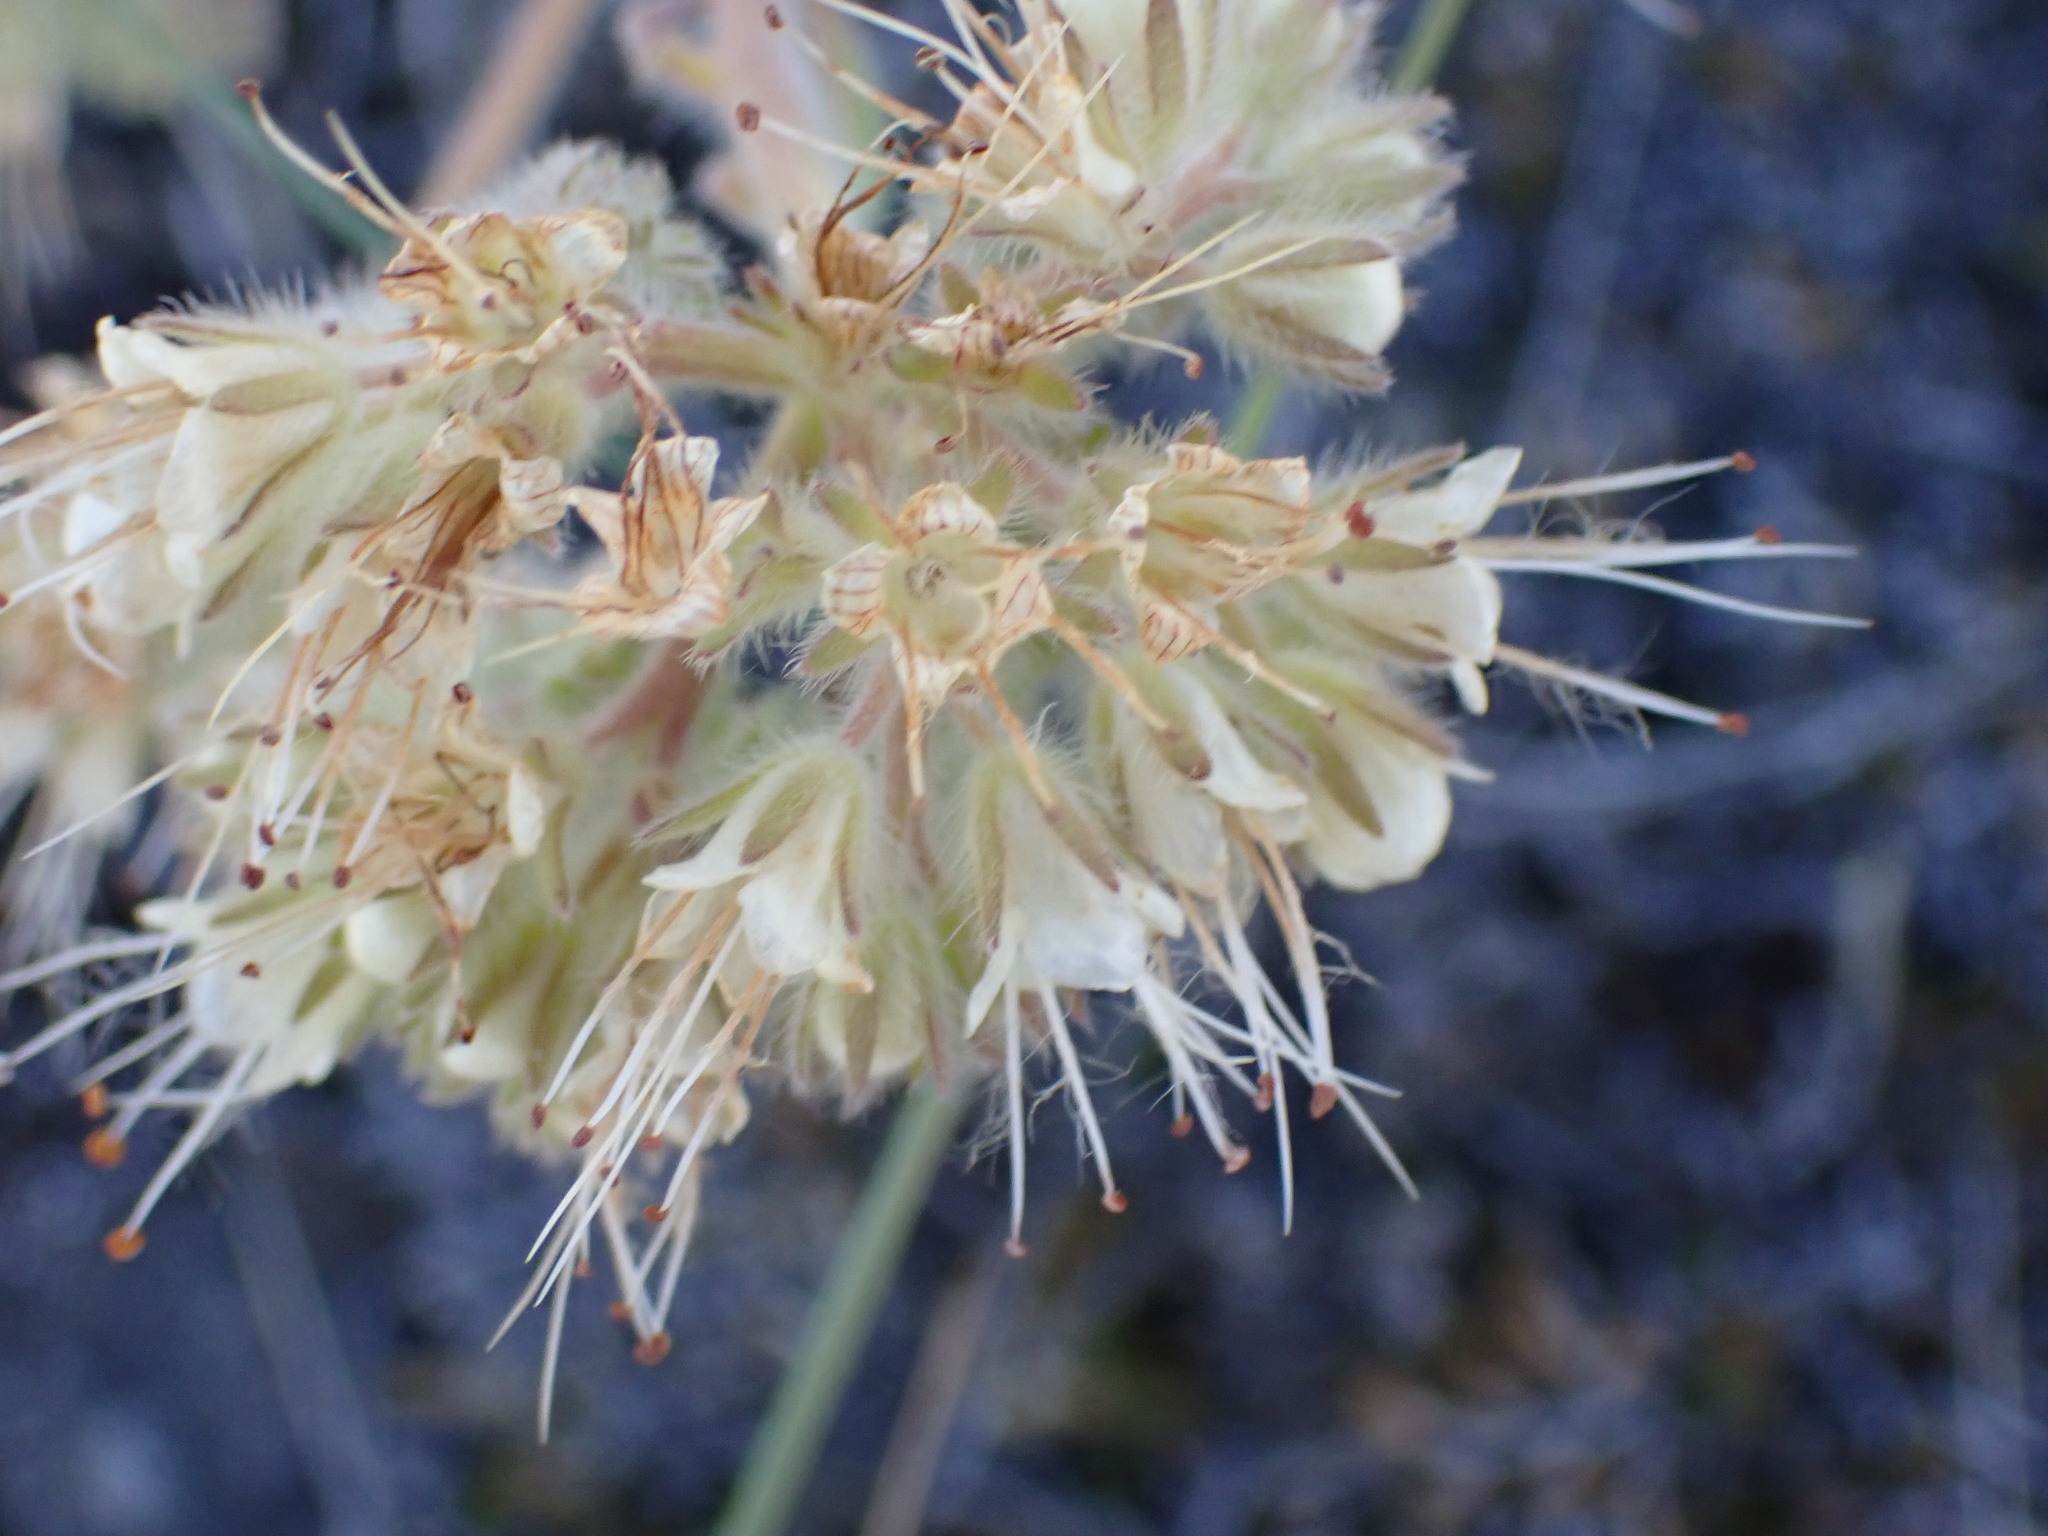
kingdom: Plantae
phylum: Tracheophyta
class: Magnoliopsida
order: Boraginales
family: Hydrophyllaceae
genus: Phacelia
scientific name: Phacelia hastata
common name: Silver-leaved phacelia
